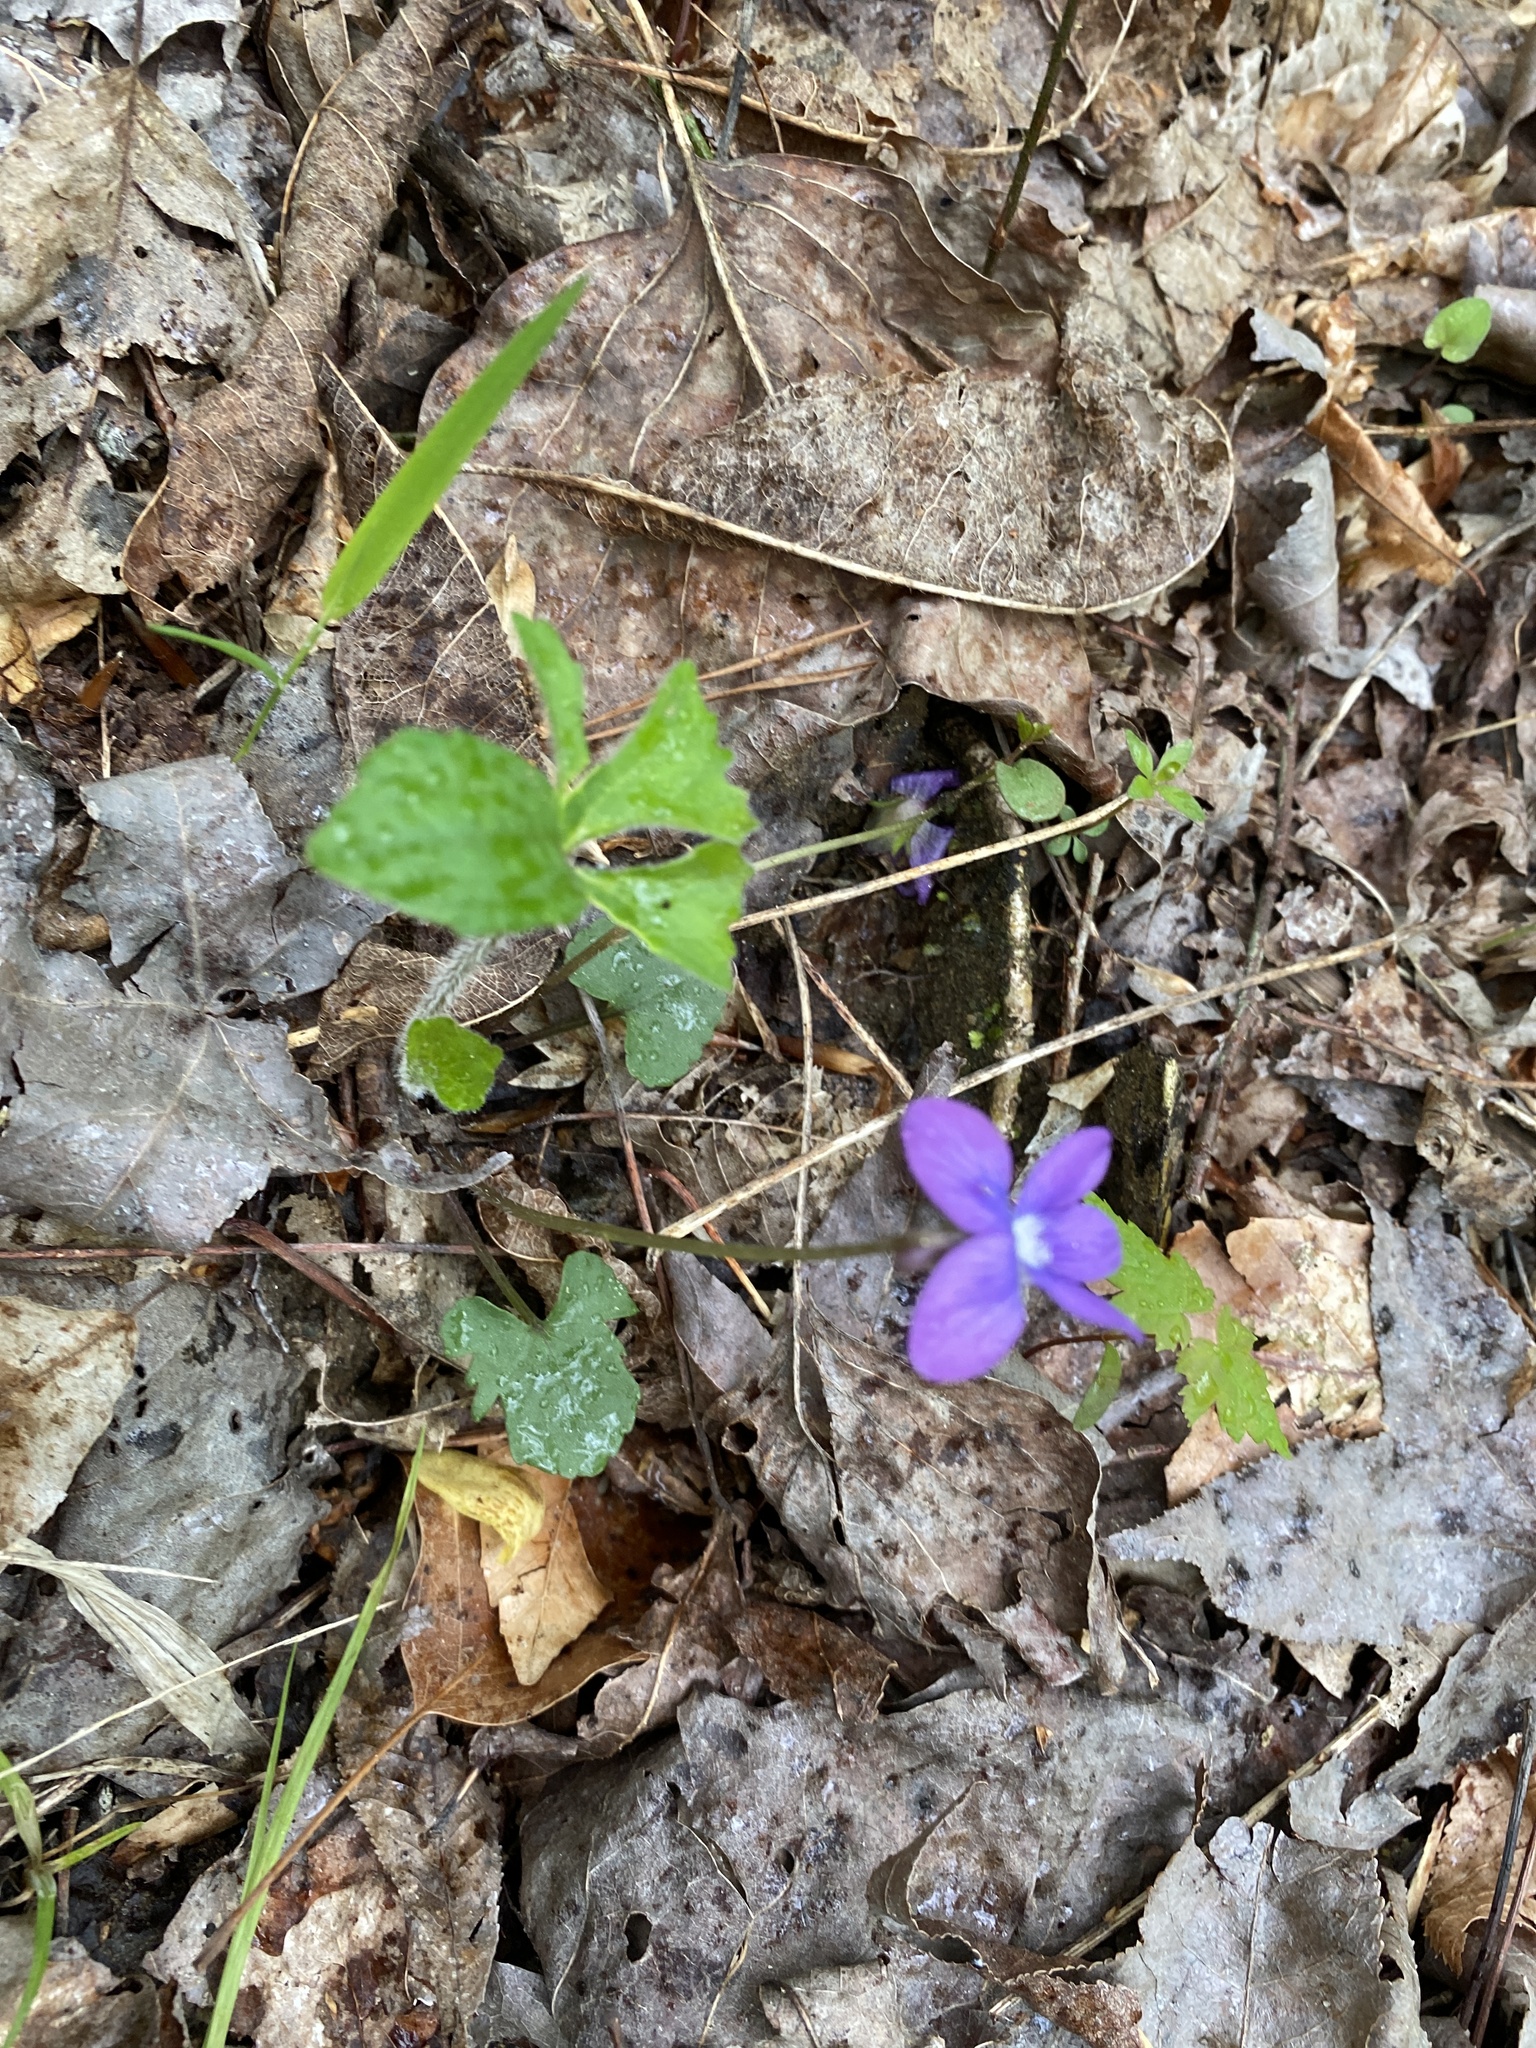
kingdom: Plantae
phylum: Tracheophyta
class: Magnoliopsida
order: Malpighiales
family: Violaceae
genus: Viola
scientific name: Viola palmata
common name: Early blue violet
